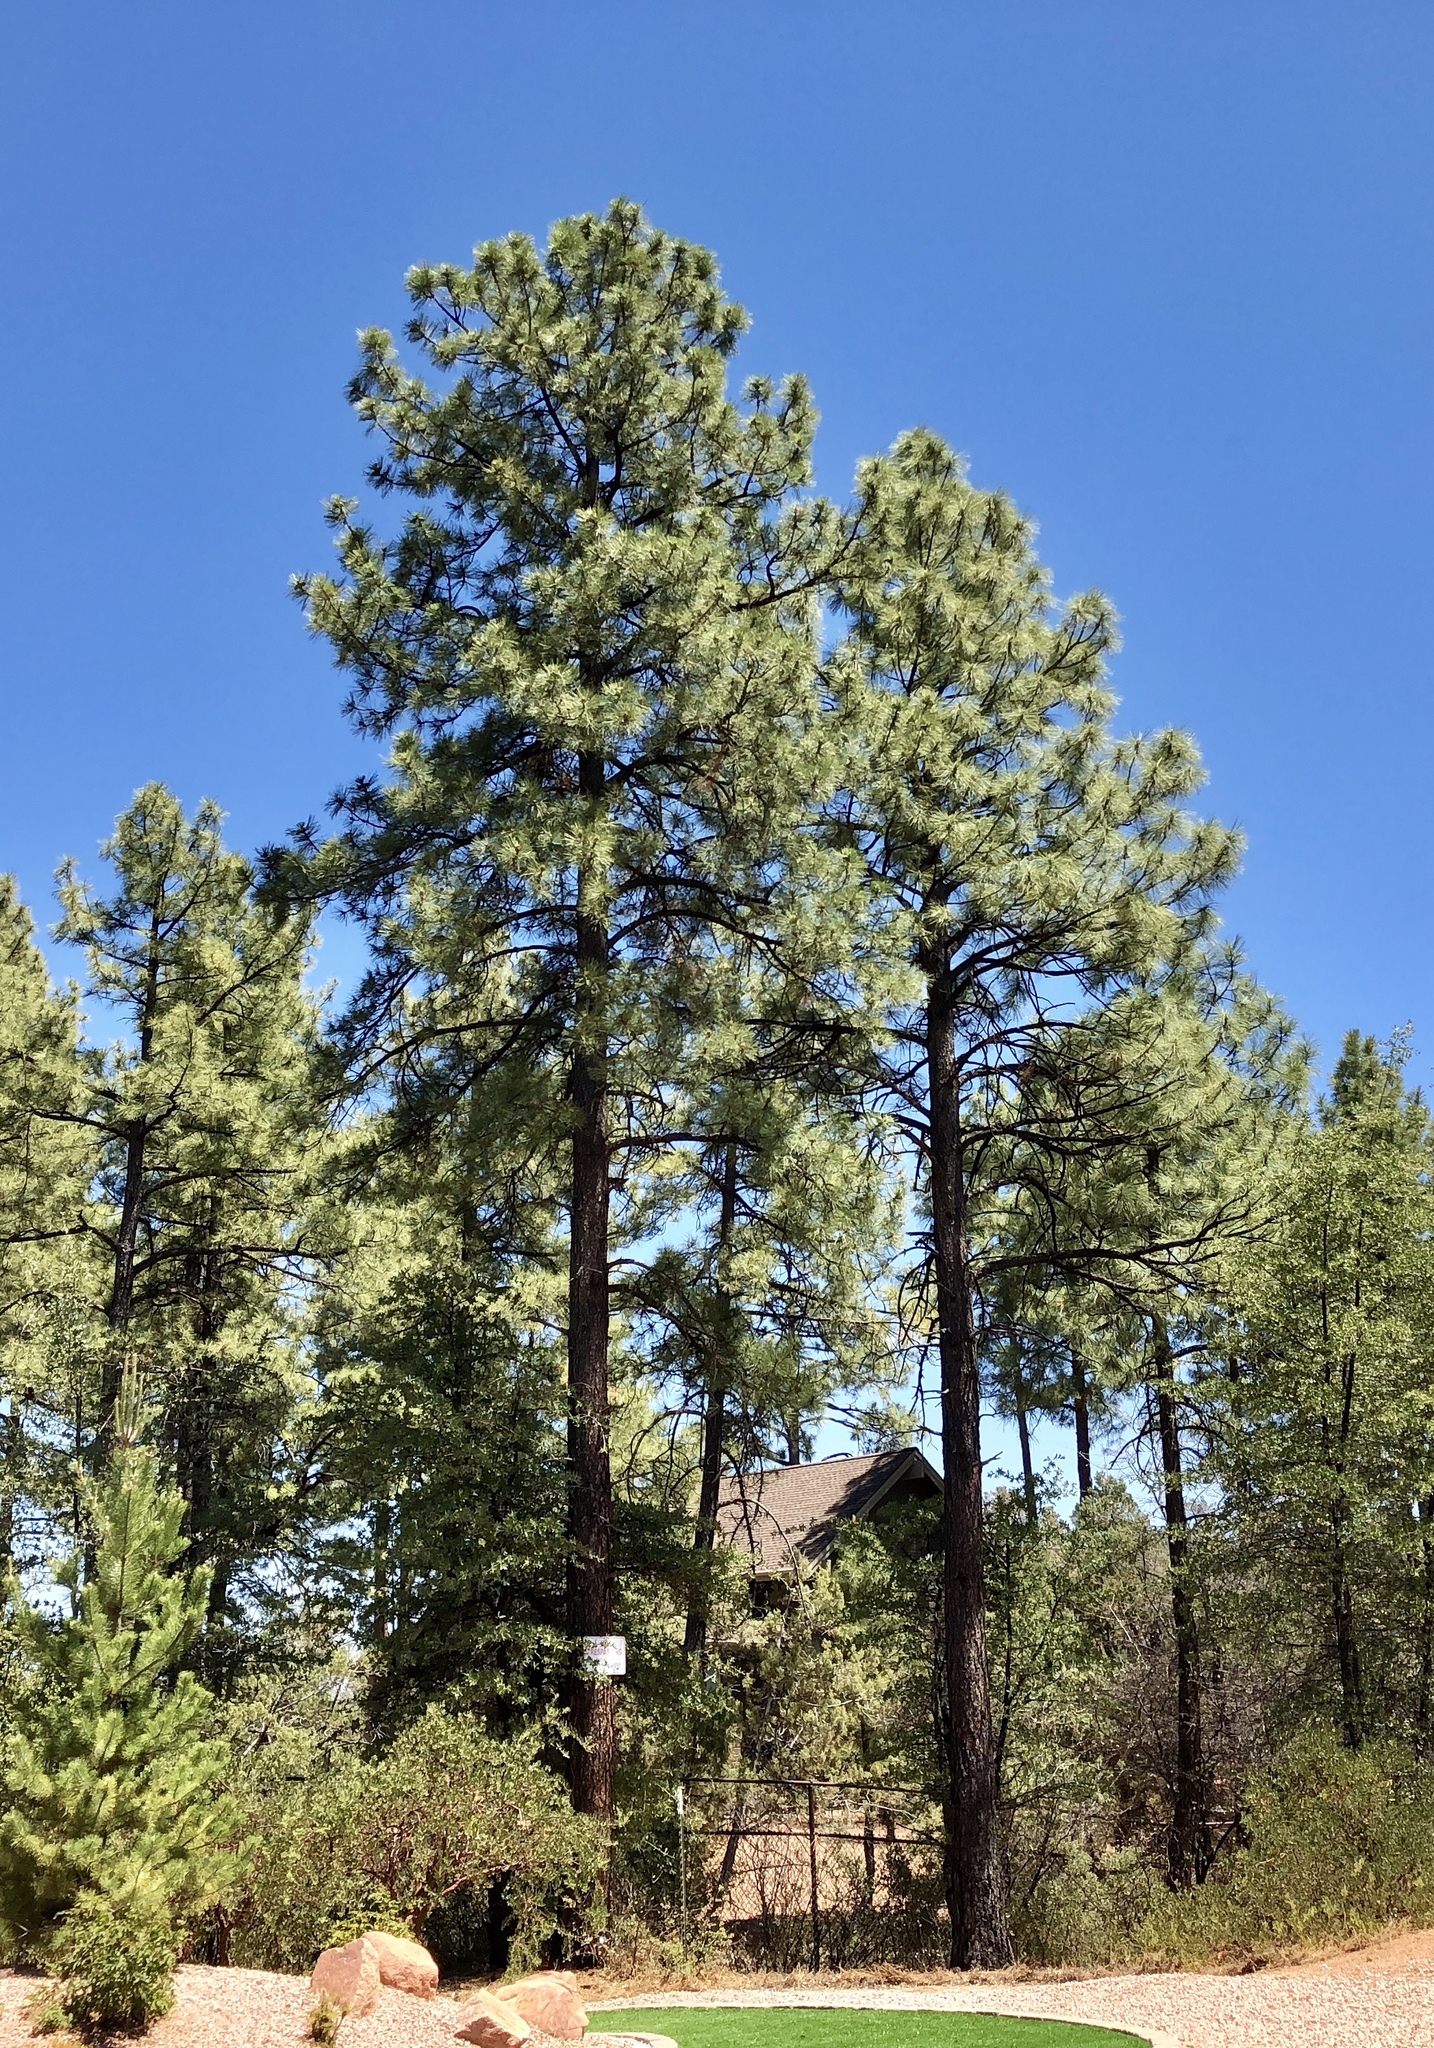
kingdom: Plantae
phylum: Tracheophyta
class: Pinopsida
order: Pinales
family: Pinaceae
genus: Pinus
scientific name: Pinus ponderosa
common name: Western yellow-pine
